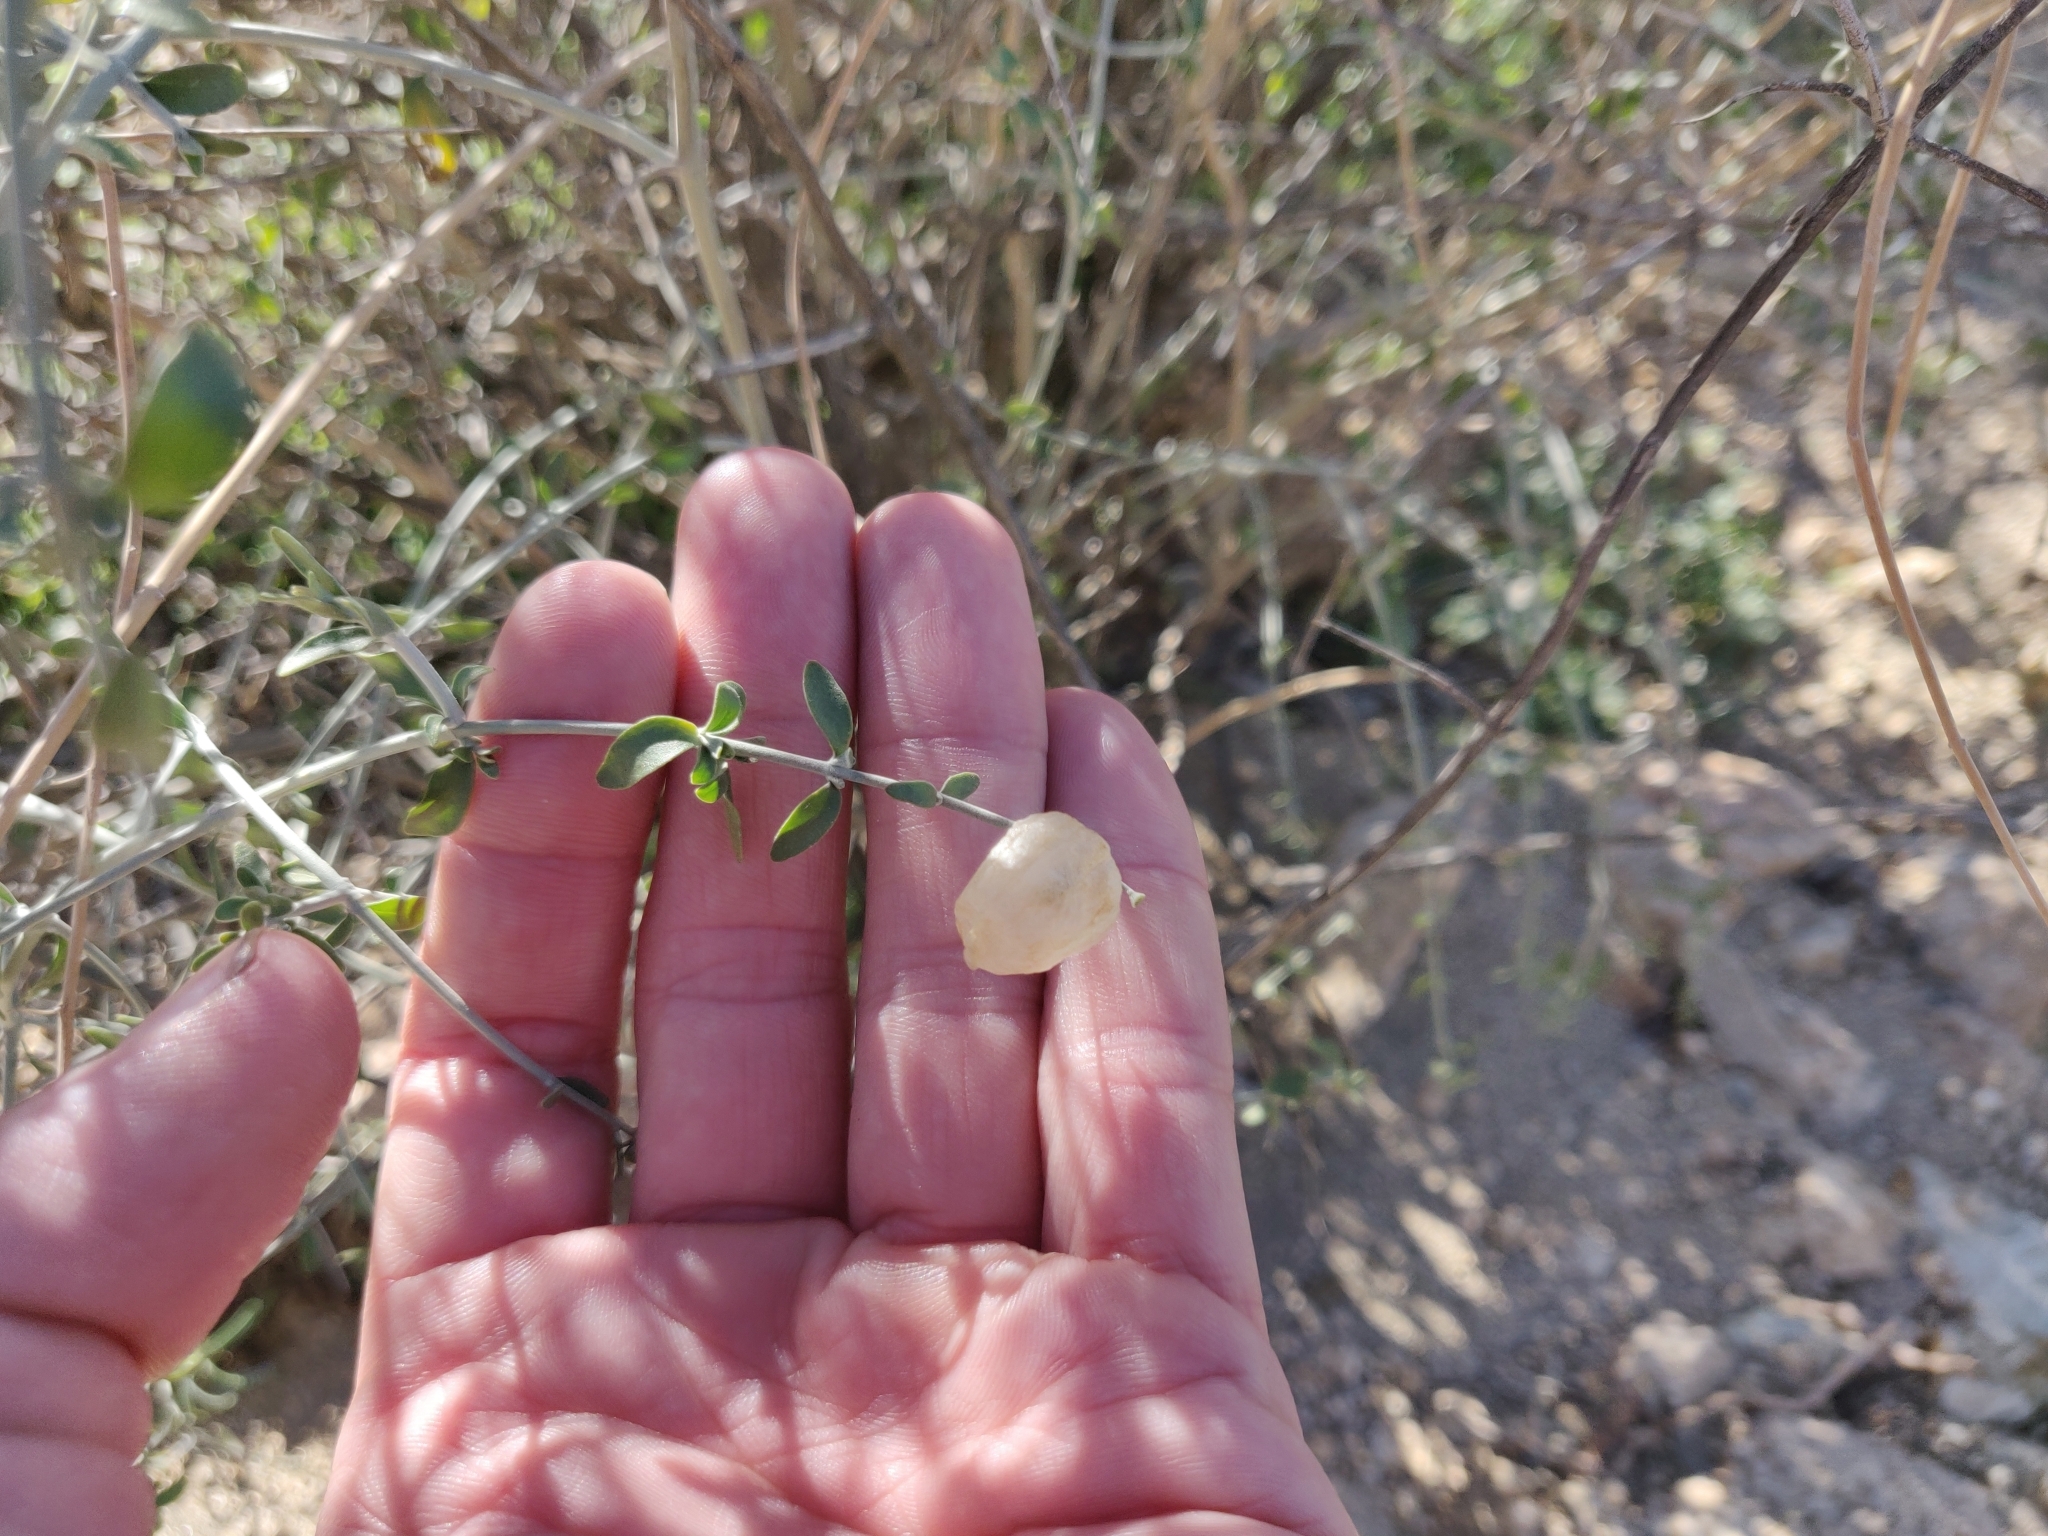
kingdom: Plantae
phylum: Tracheophyta
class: Magnoliopsida
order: Lamiales
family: Lamiaceae
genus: Scutellaria
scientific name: Scutellaria mexicana
